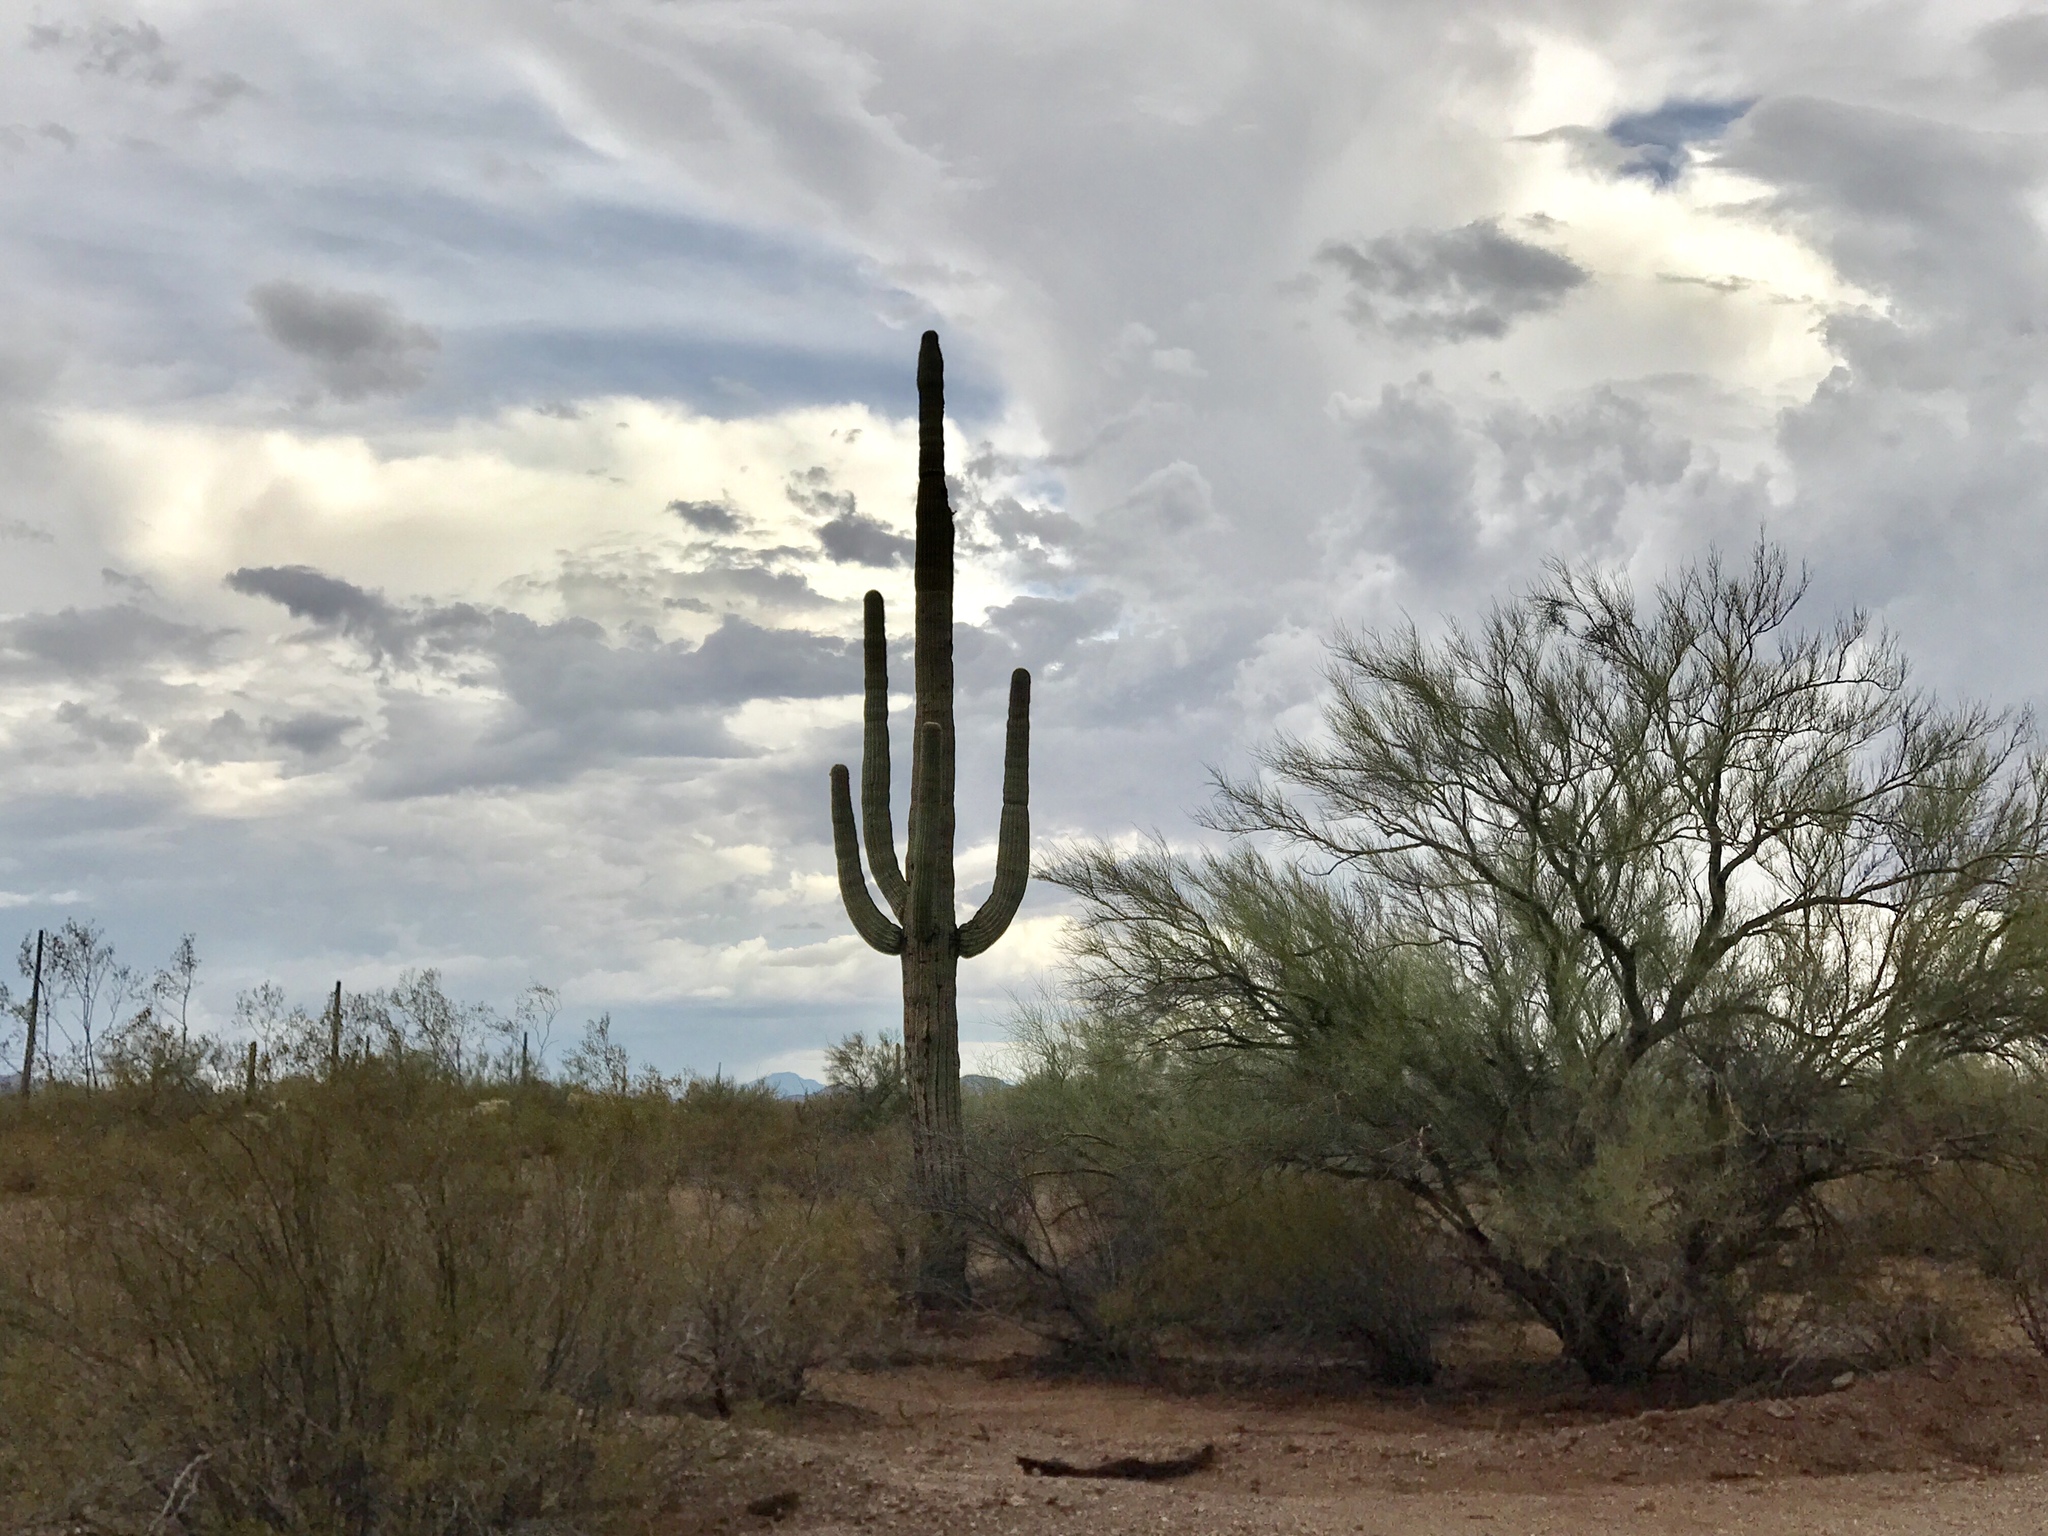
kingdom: Plantae
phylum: Tracheophyta
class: Magnoliopsida
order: Caryophyllales
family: Cactaceae
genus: Carnegiea
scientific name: Carnegiea gigantea
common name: Saguaro
